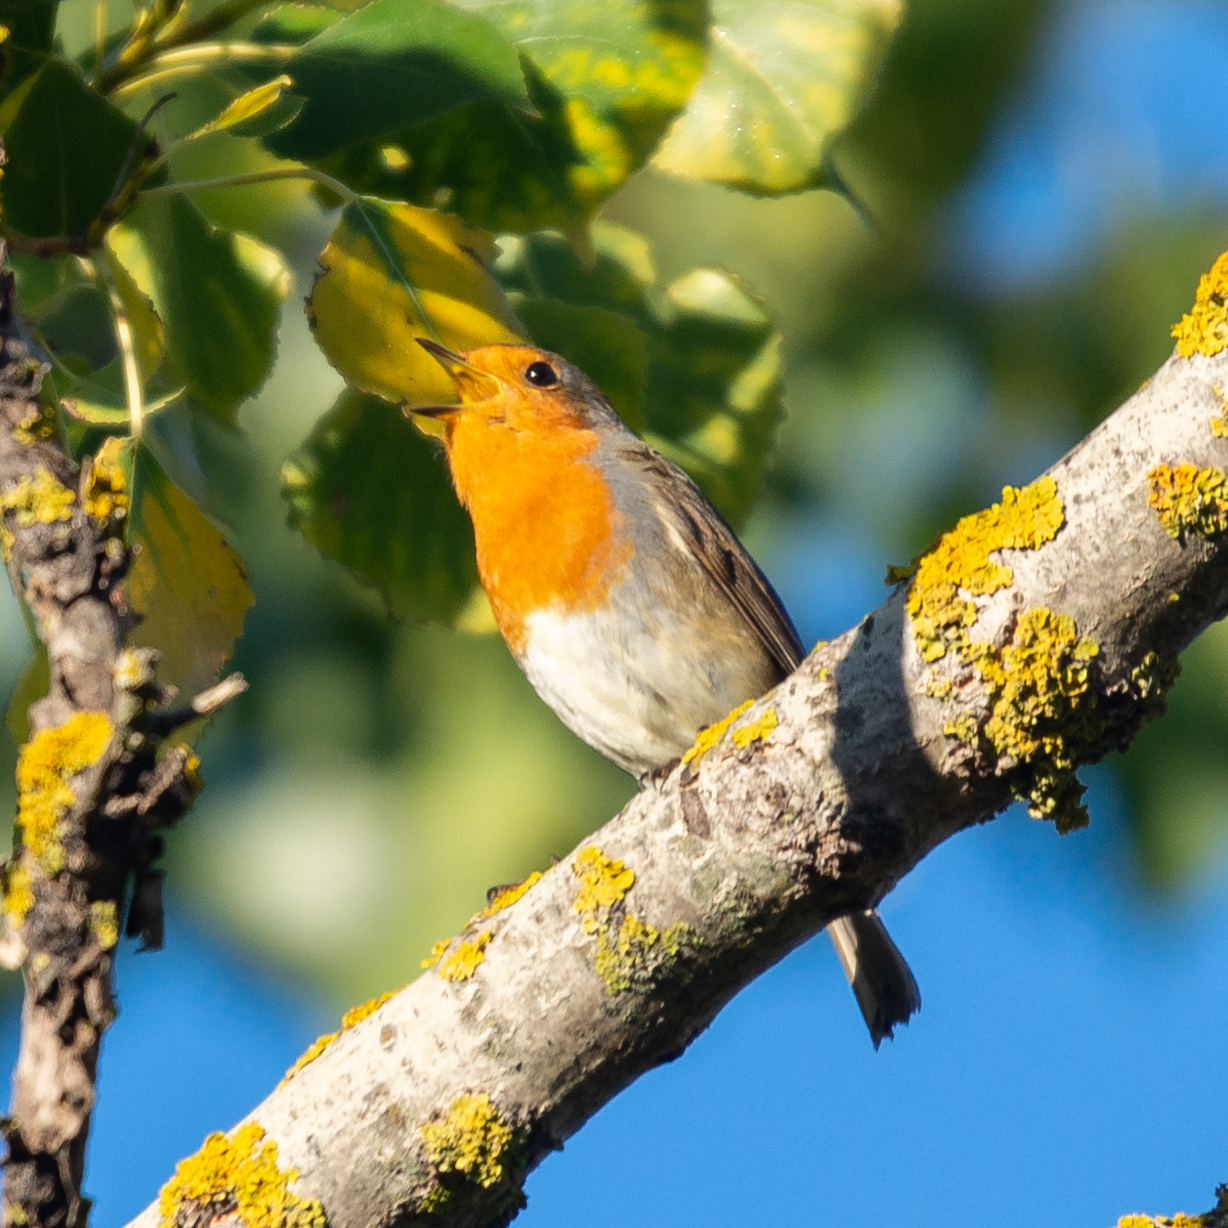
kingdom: Animalia
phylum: Chordata
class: Aves
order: Passeriformes
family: Muscicapidae
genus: Erithacus
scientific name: Erithacus rubecula
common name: European robin
